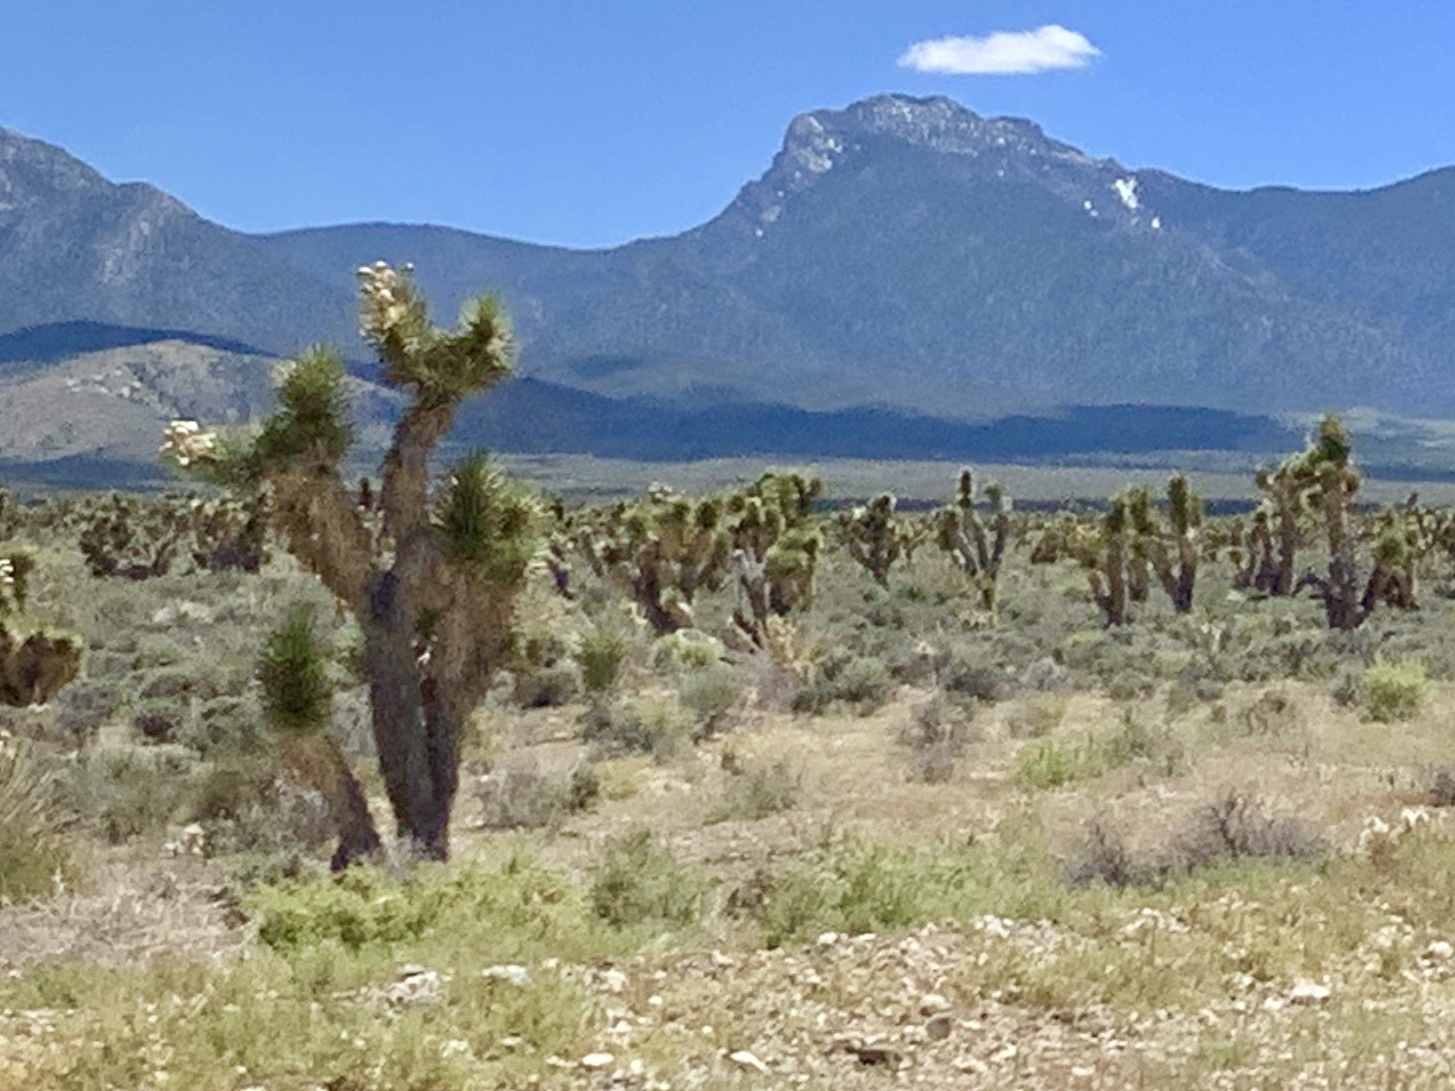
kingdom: Plantae
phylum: Tracheophyta
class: Liliopsida
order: Asparagales
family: Asparagaceae
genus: Yucca
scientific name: Yucca brevifolia
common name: Joshua tree
